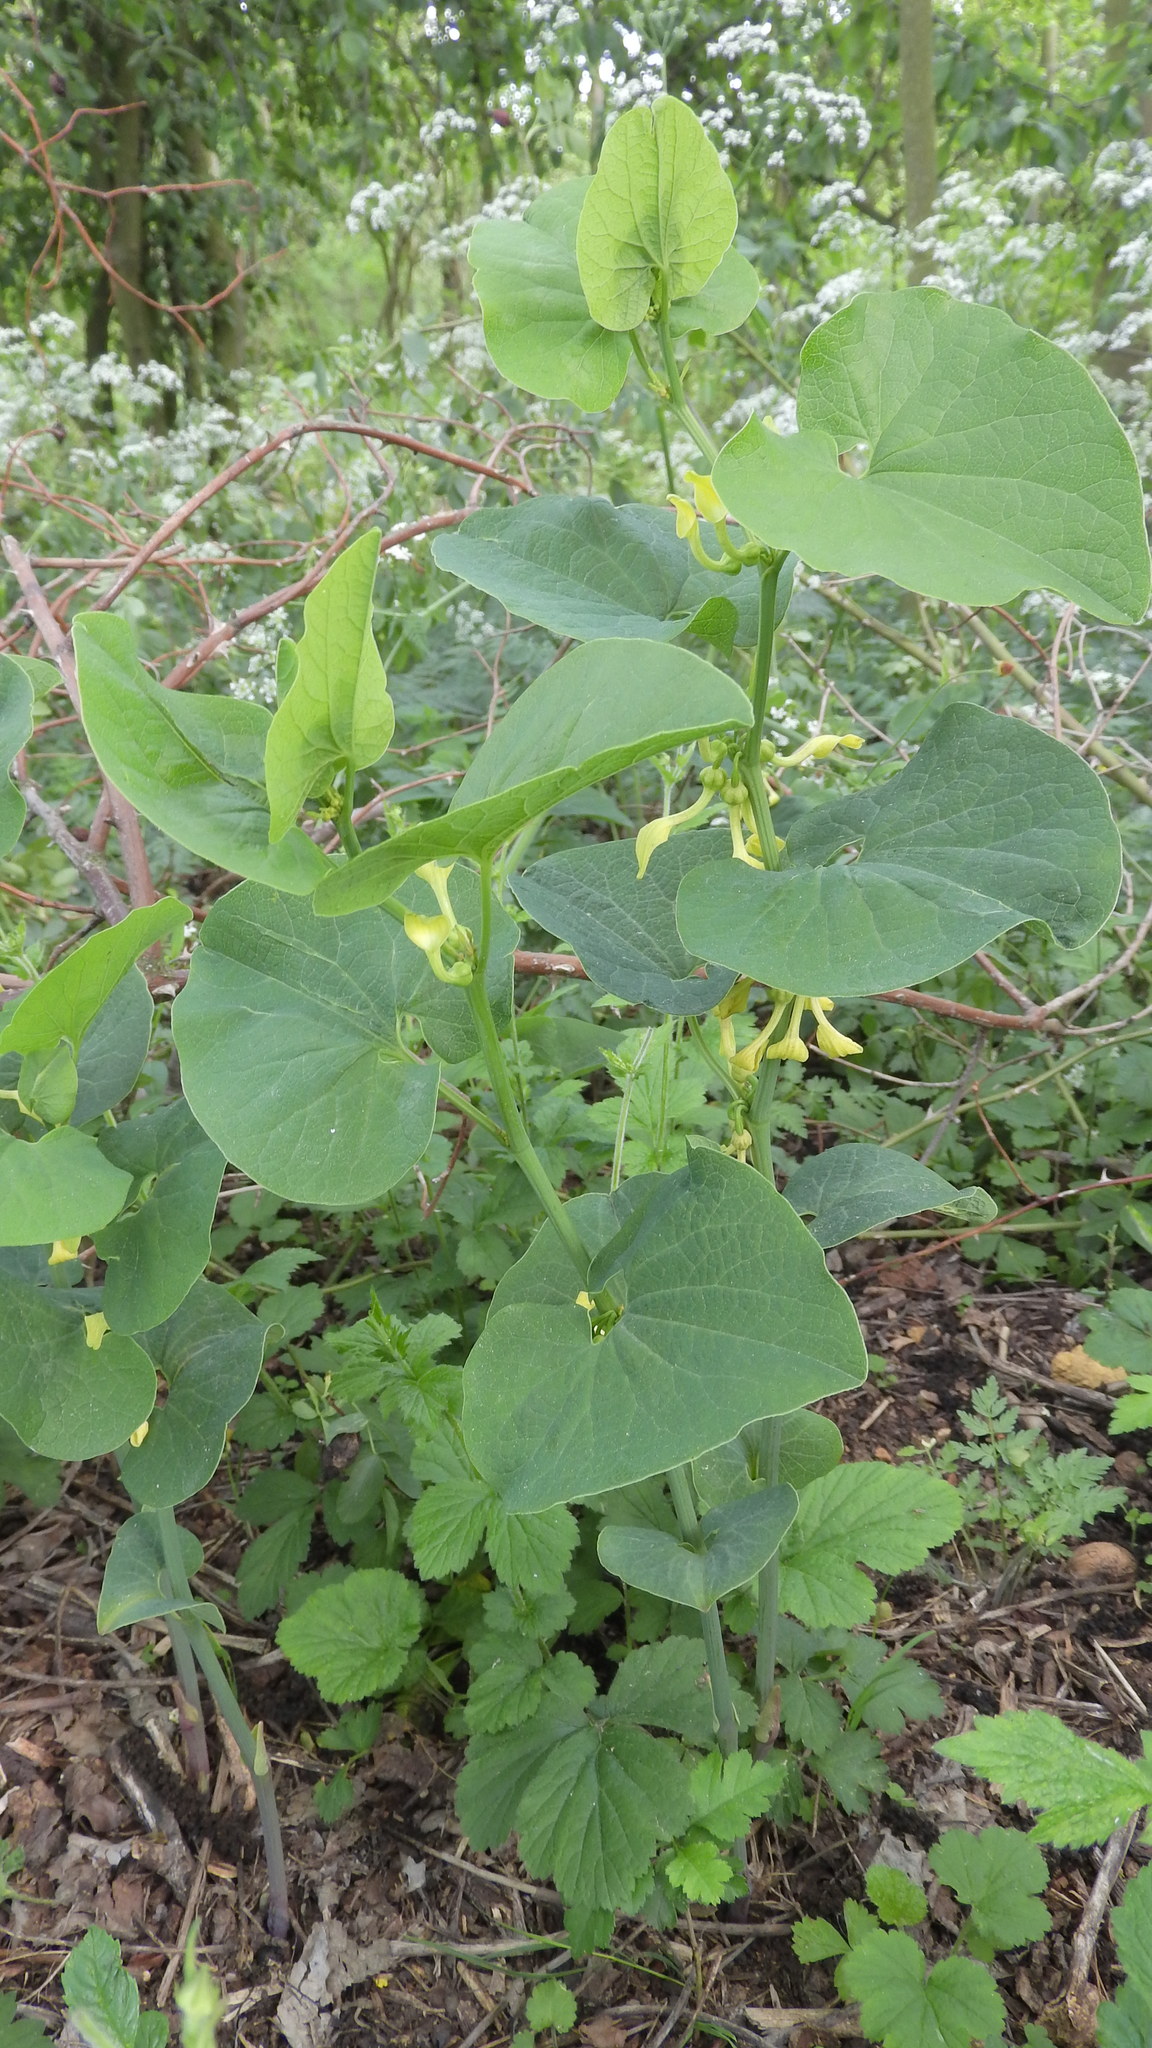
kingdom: Plantae
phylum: Tracheophyta
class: Magnoliopsida
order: Piperales
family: Aristolochiaceae
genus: Aristolochia
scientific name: Aristolochia clematitis
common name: Birthwort
